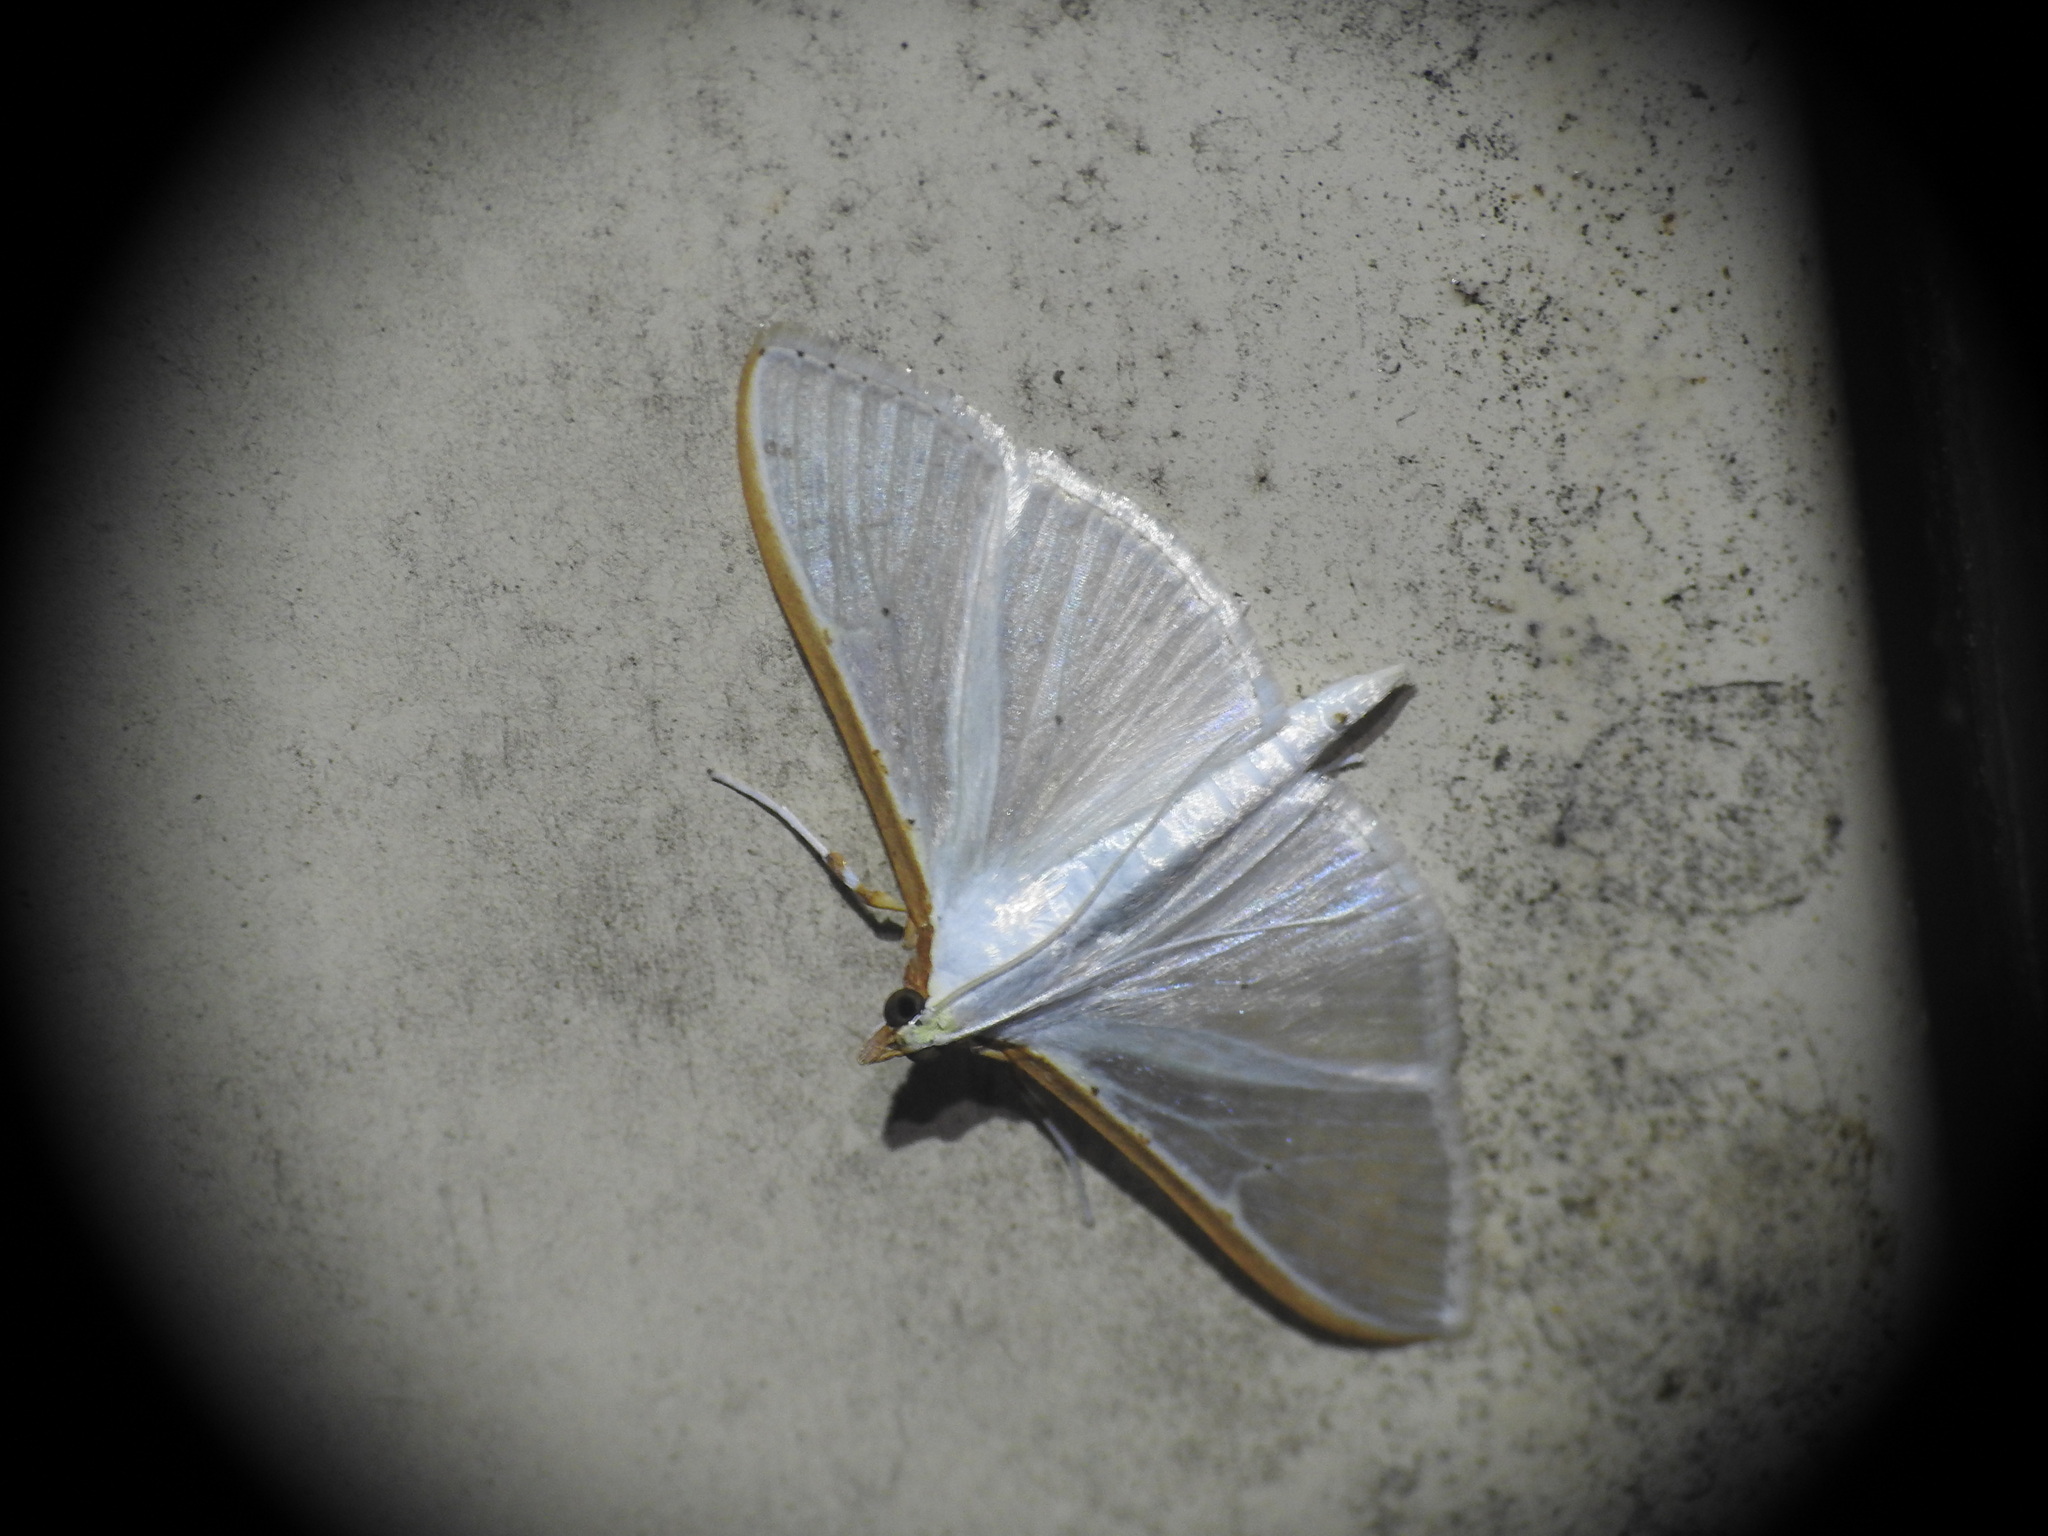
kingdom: Animalia
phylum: Arthropoda
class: Insecta
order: Lepidoptera
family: Crambidae
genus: Palpita
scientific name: Palpita vitrealis
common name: Olive-tree pearl
